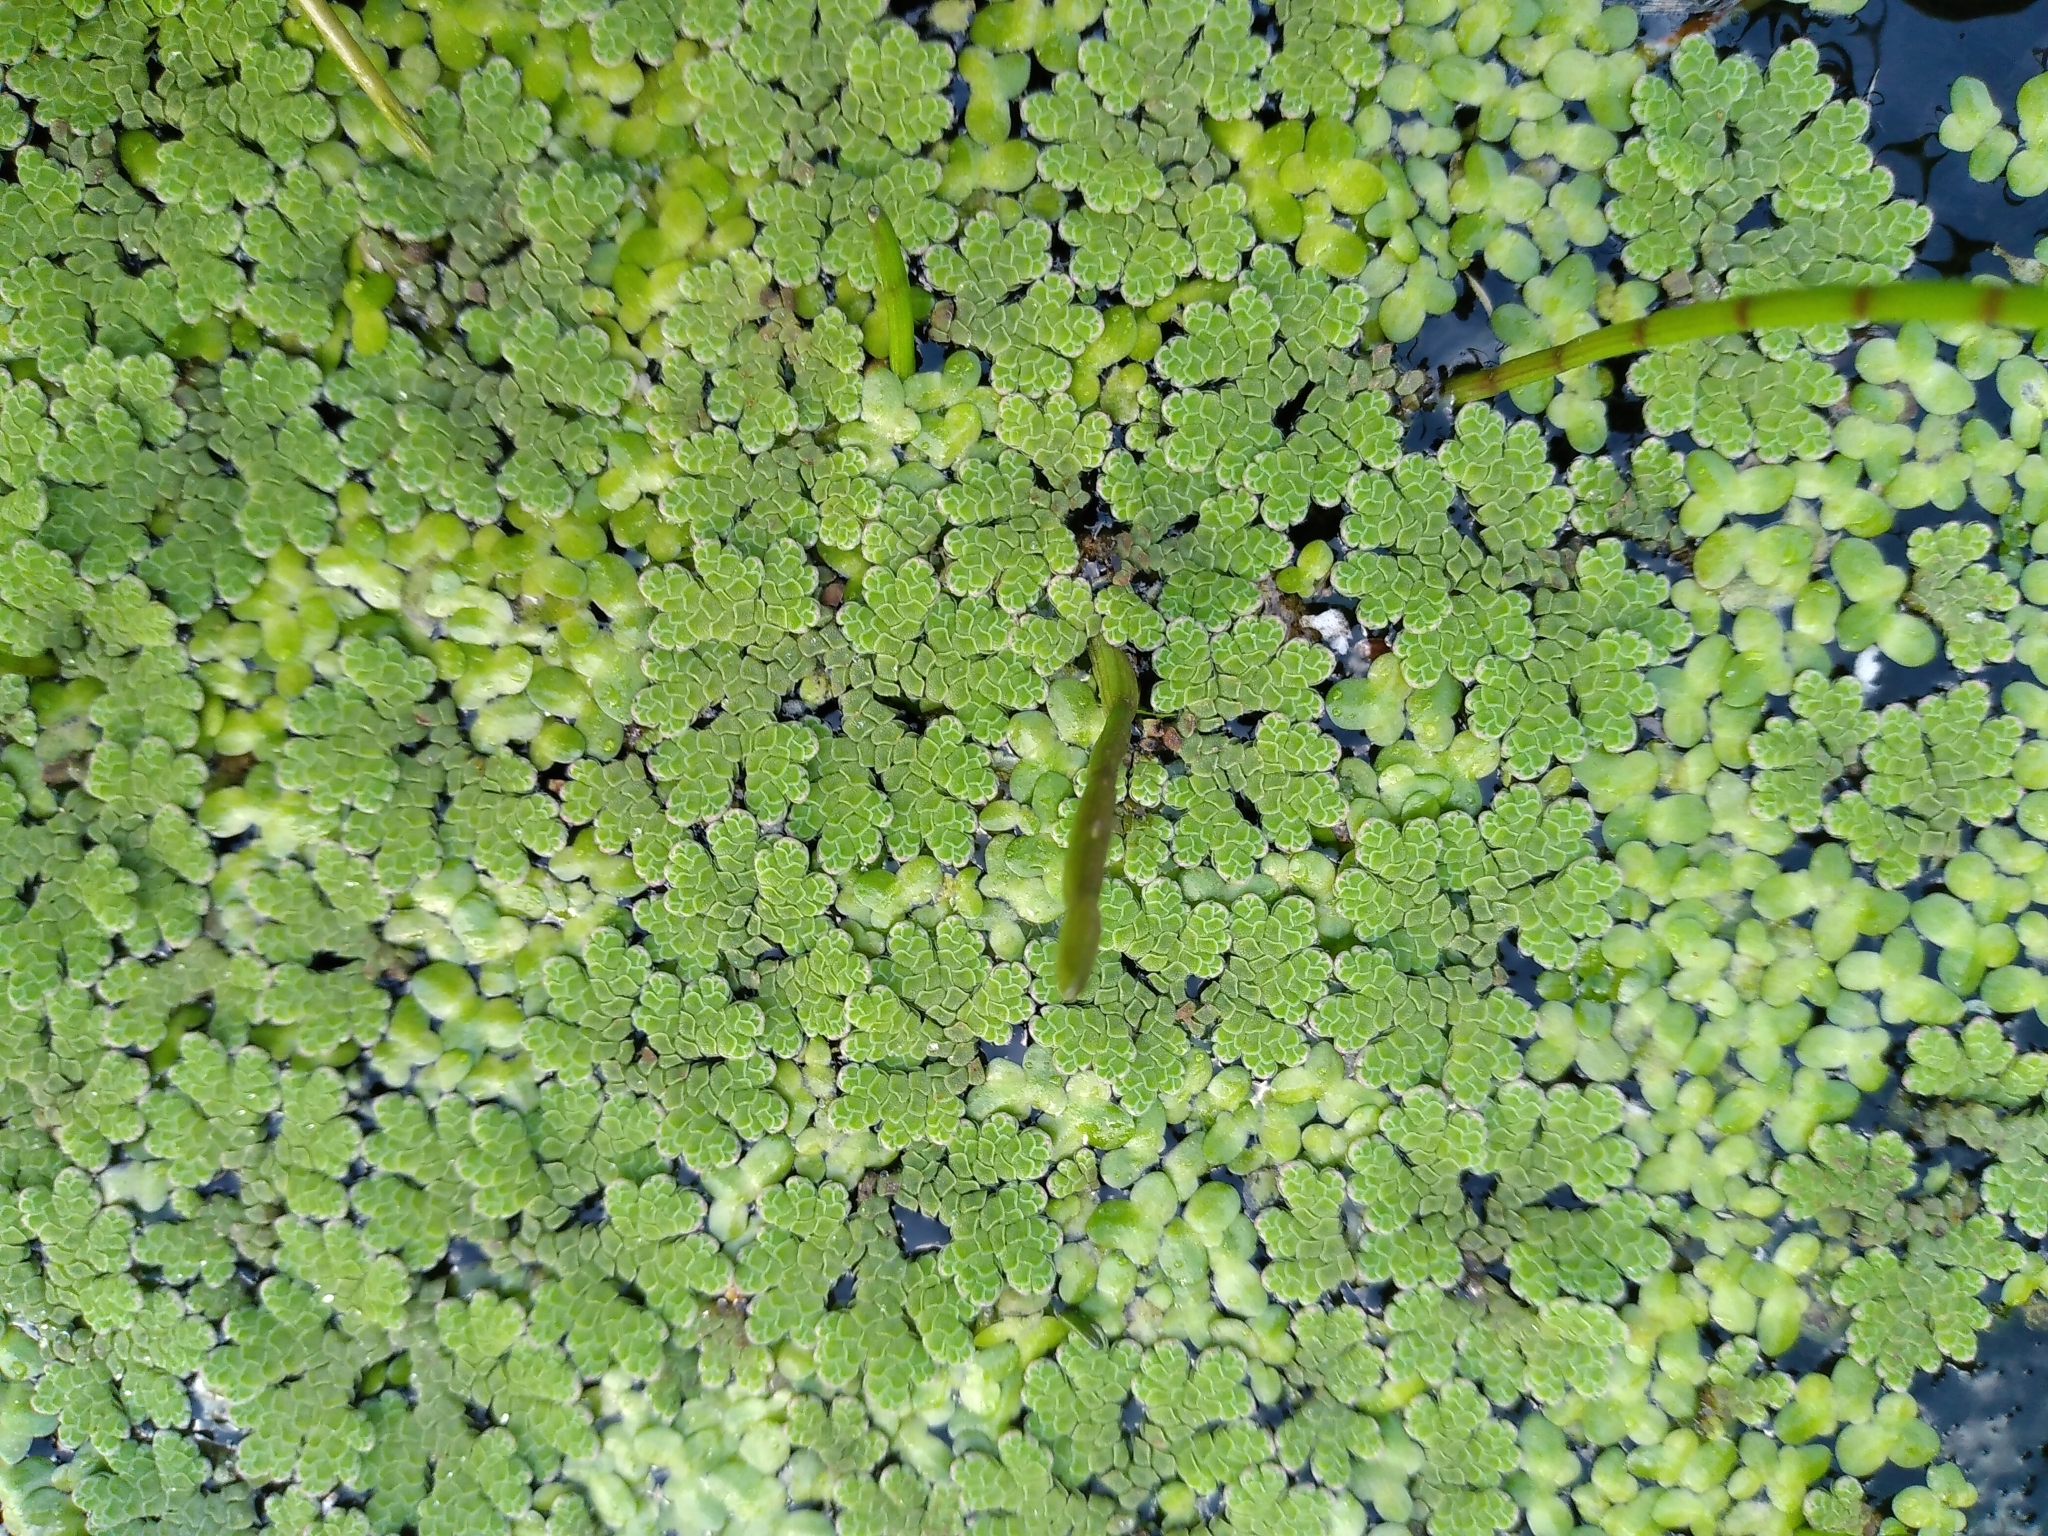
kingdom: Plantae
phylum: Tracheophyta
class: Polypodiopsida
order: Salviniales
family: Salviniaceae
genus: Azolla
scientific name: Azolla rubra
